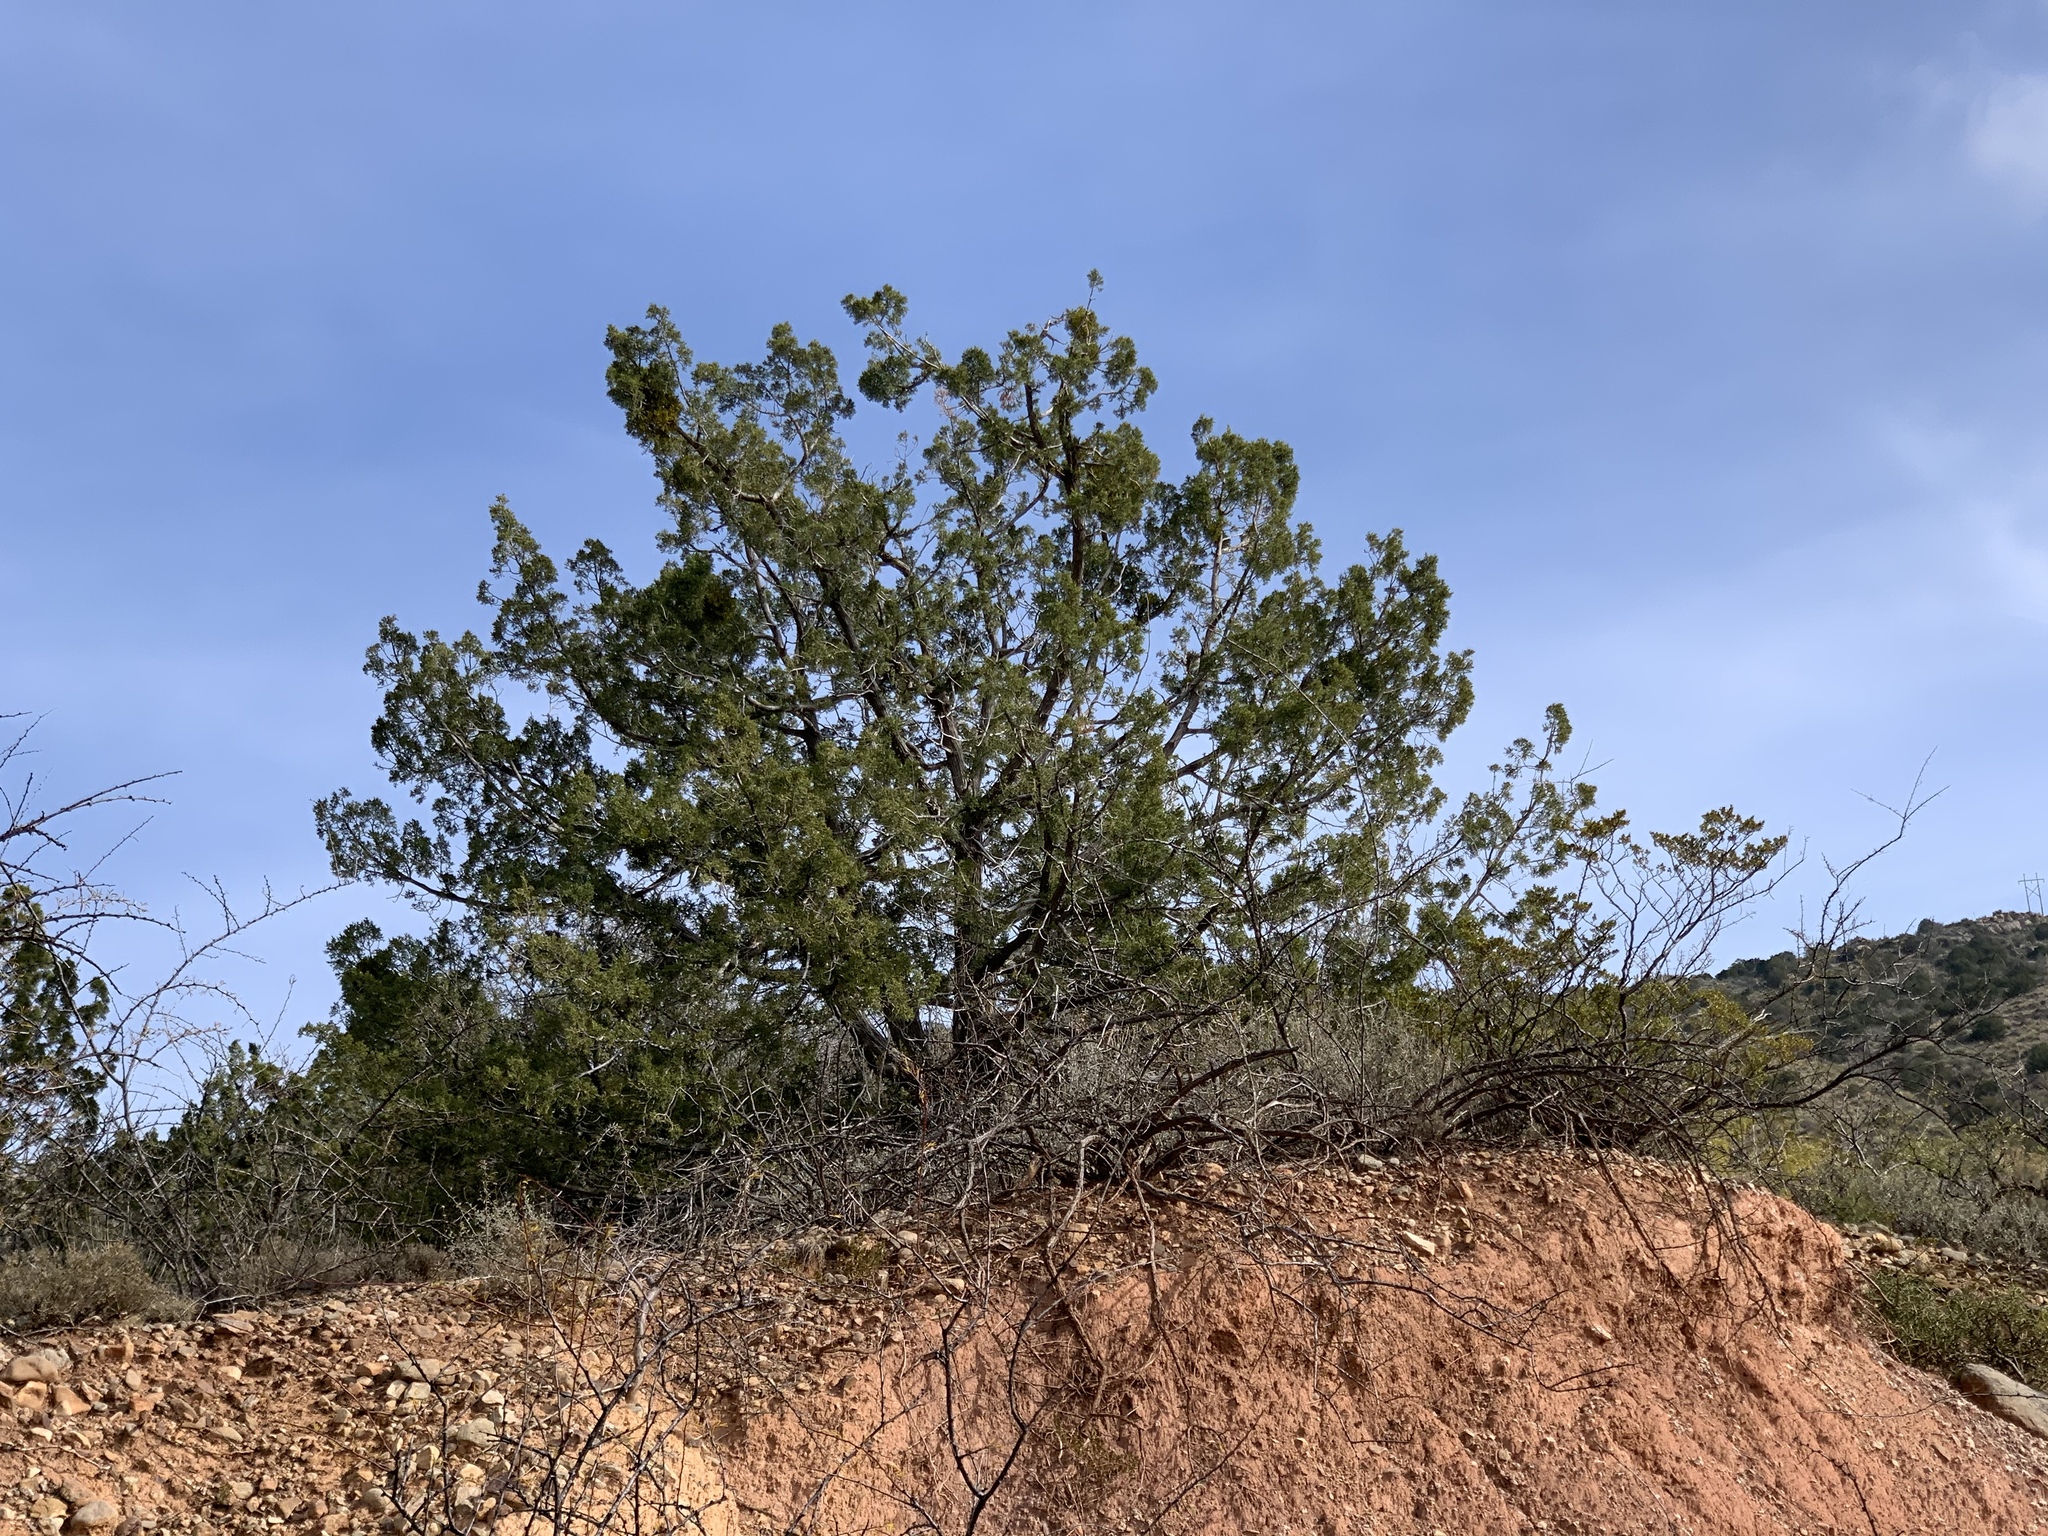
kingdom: Plantae
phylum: Tracheophyta
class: Pinopsida
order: Pinales
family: Cupressaceae
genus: Juniperus
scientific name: Juniperus monosperma
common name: One-seed juniper
